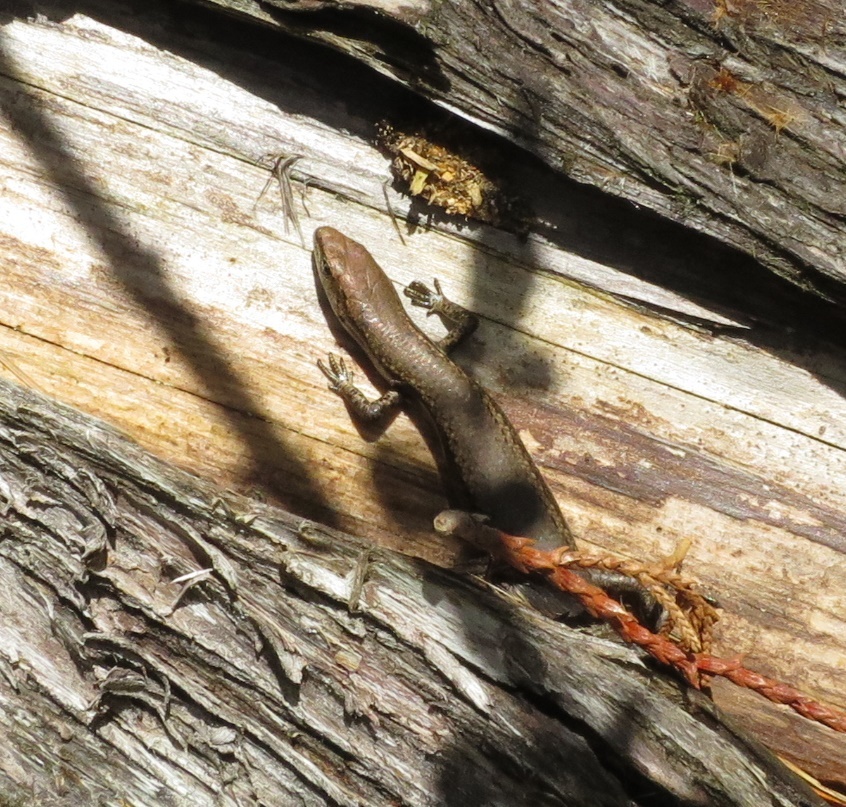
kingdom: Animalia
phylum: Chordata
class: Squamata
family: Scincidae
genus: Lampropholis
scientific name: Lampropholis delicata
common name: Plague skink
